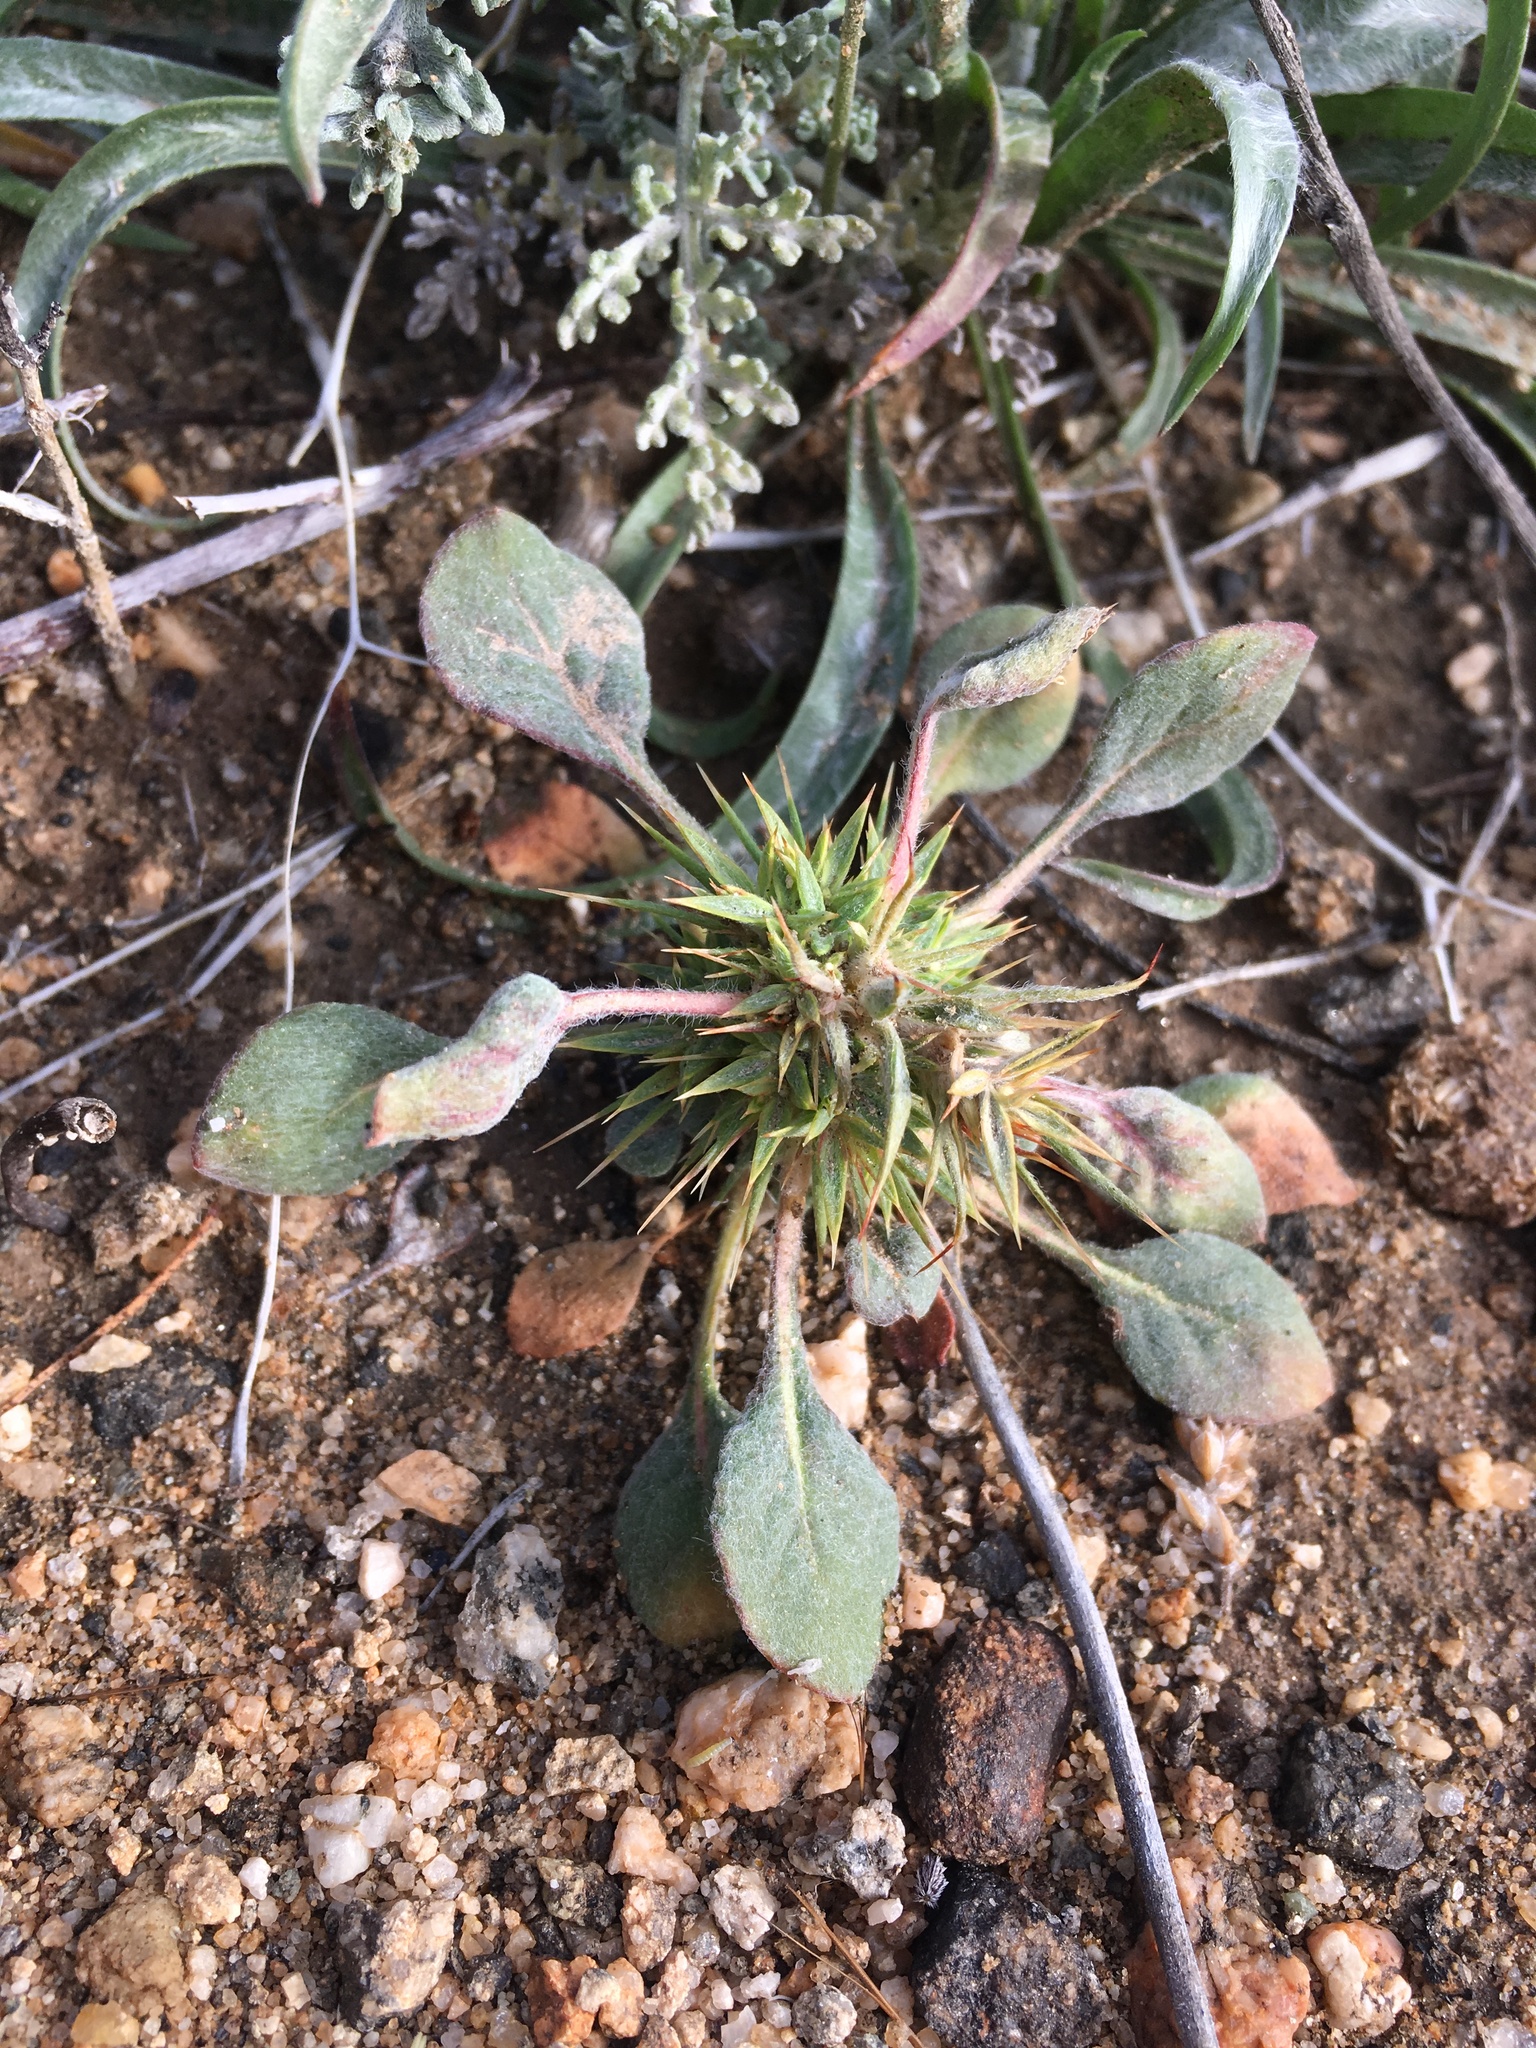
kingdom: Plantae
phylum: Tracheophyta
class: Magnoliopsida
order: Caryophyllales
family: Polygonaceae
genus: Chorizanthe
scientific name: Chorizanthe rigida
